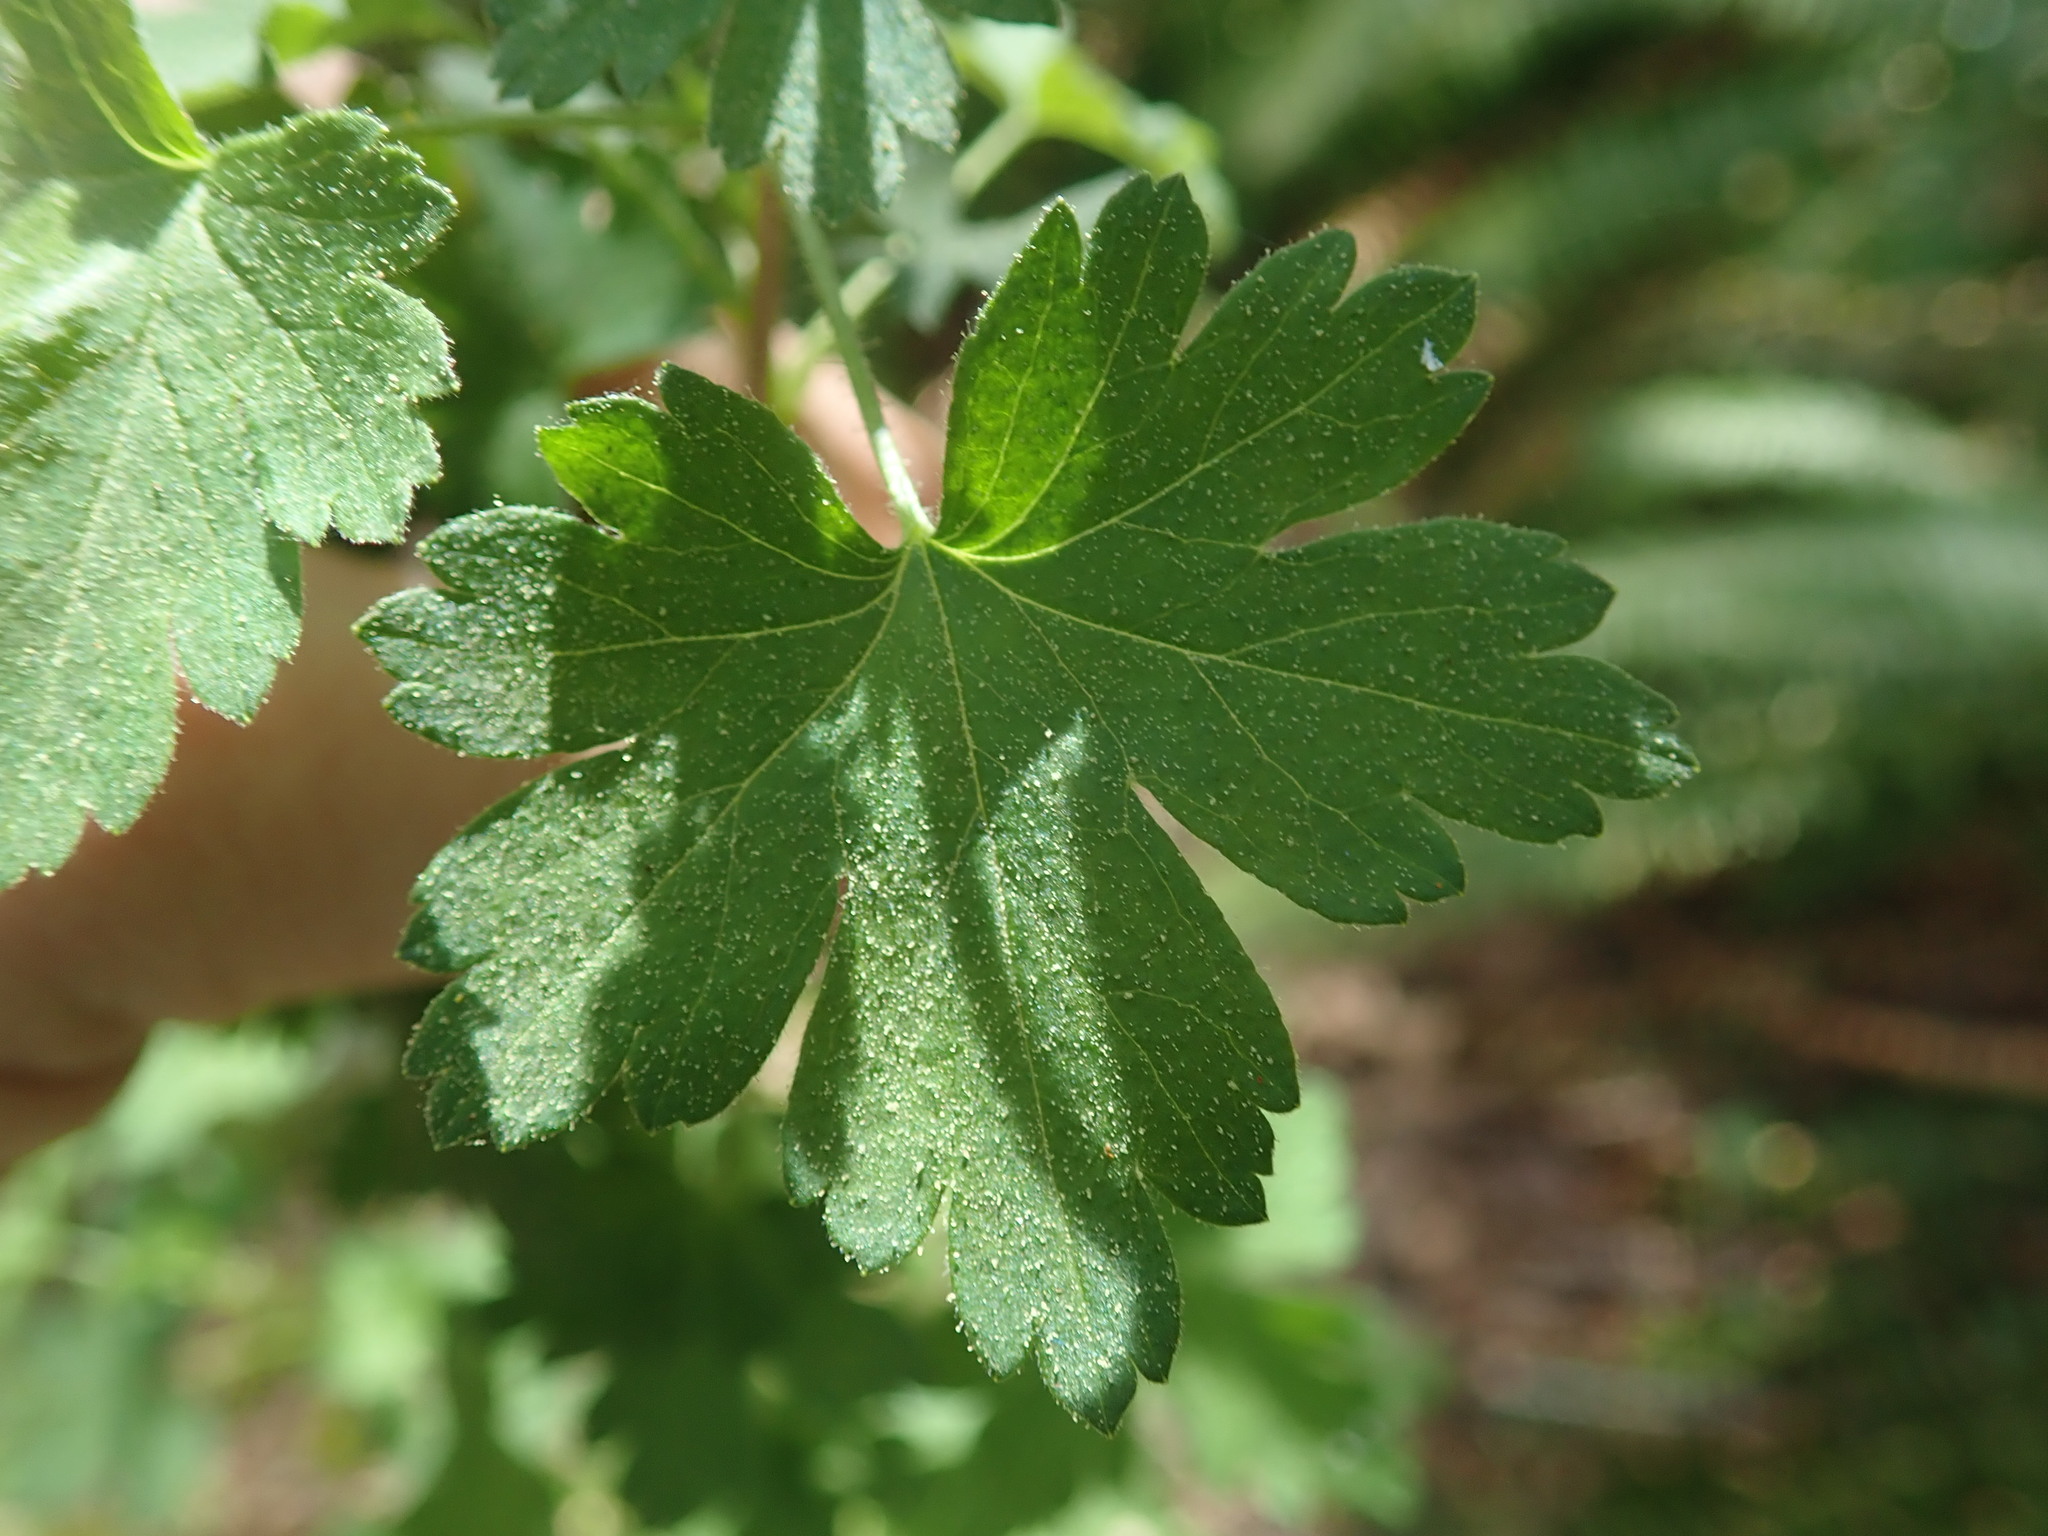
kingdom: Plantae
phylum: Tracheophyta
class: Magnoliopsida
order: Saxifragales
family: Grossulariaceae
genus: Ribes
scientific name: Ribes divaricatum
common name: Wild black gooseberry
